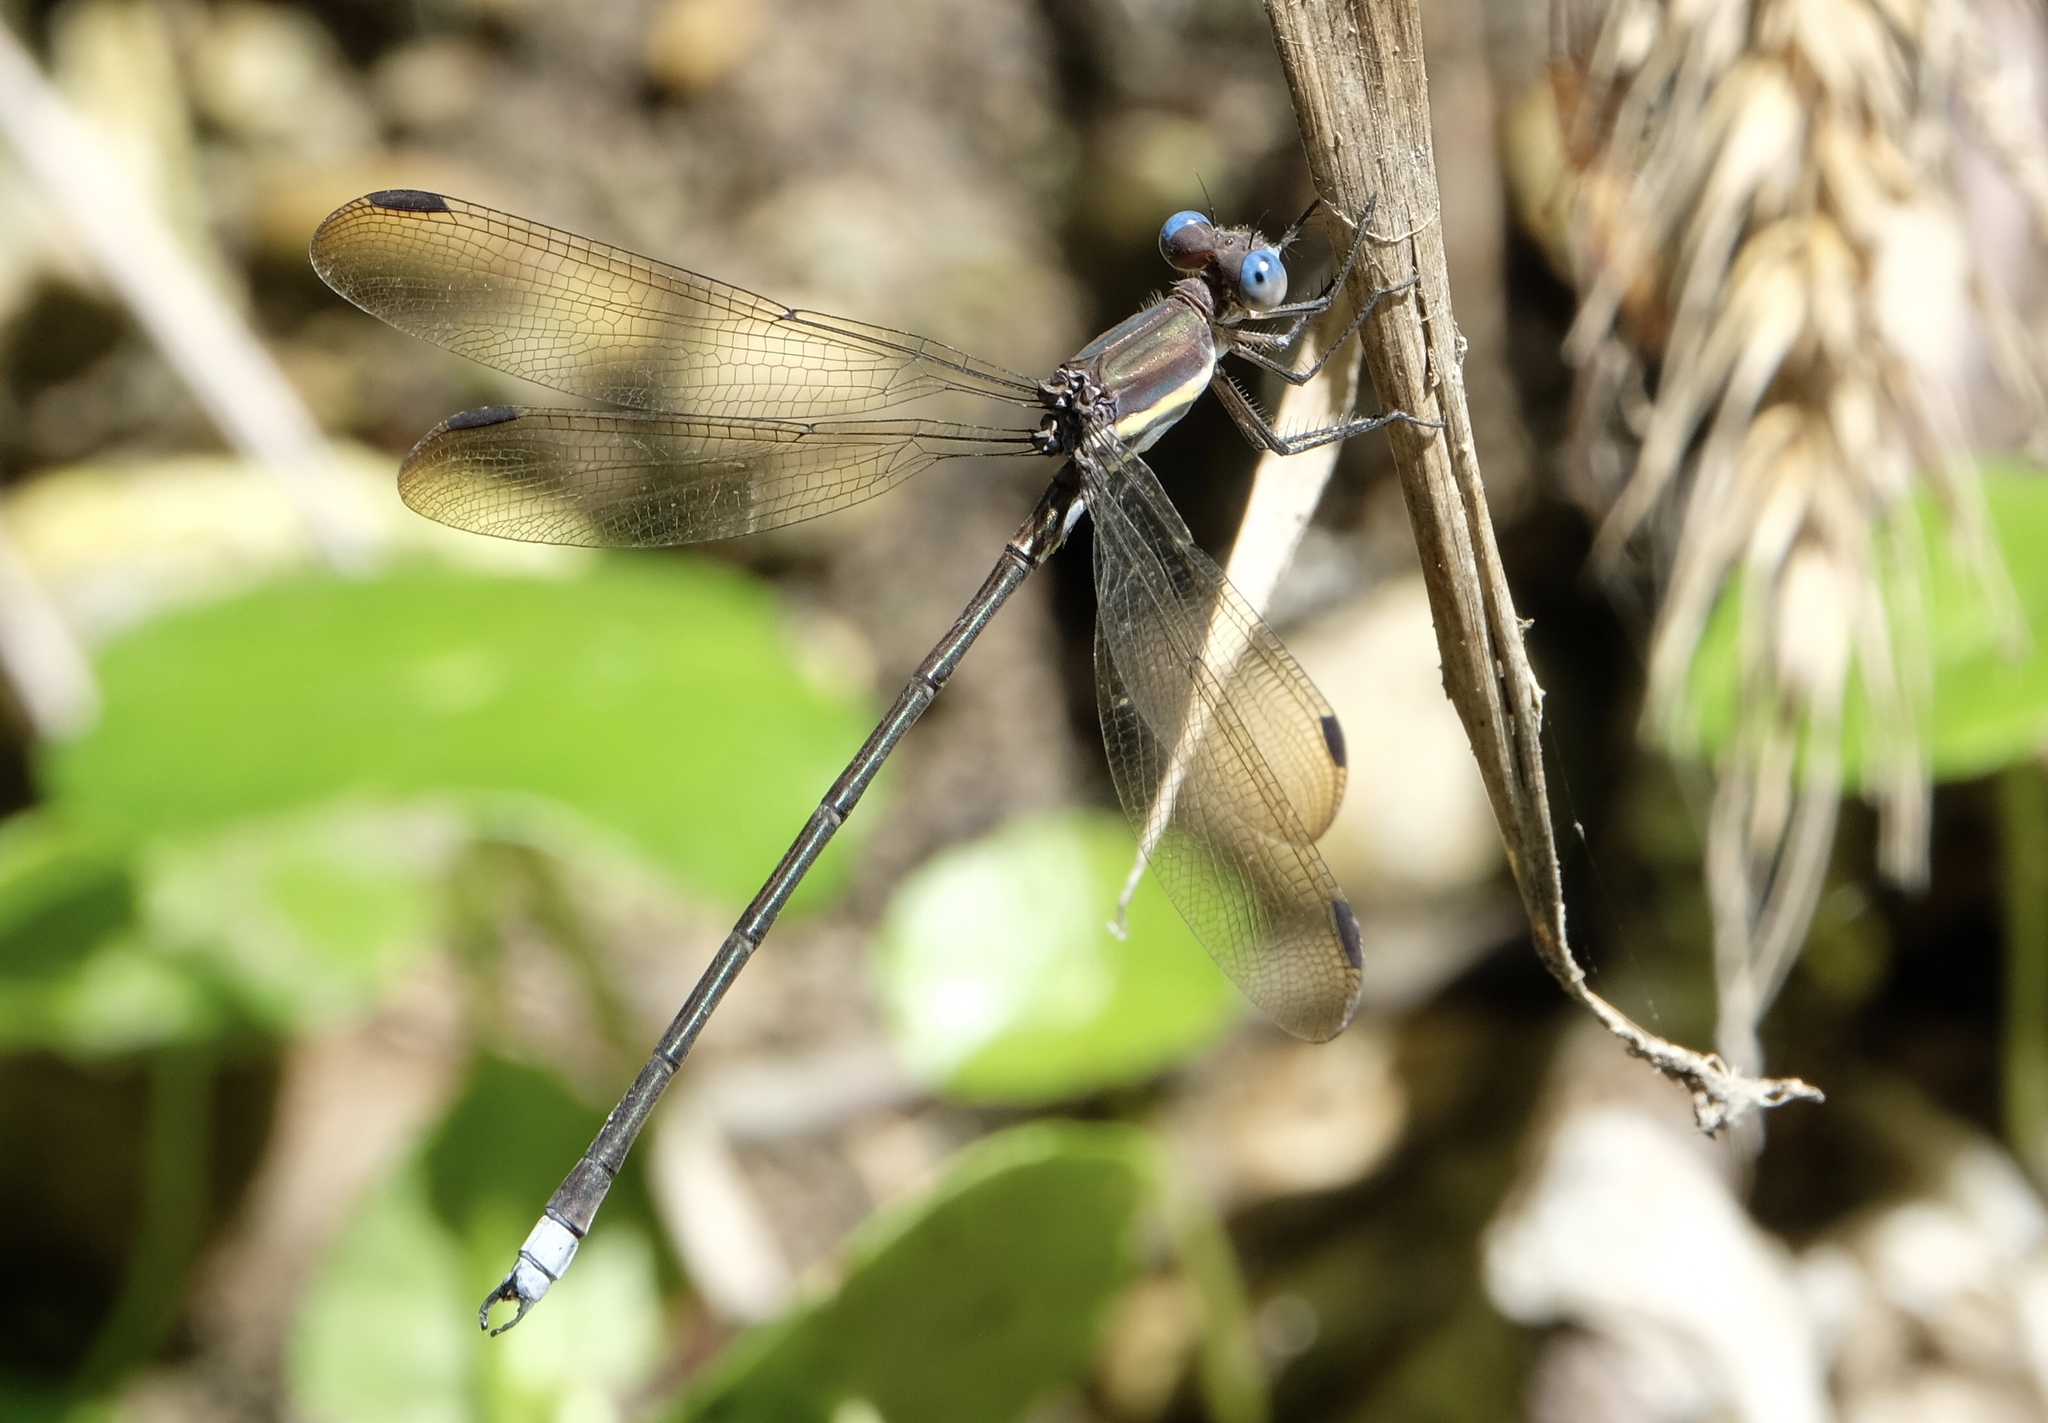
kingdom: Animalia
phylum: Arthropoda
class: Insecta
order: Odonata
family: Lestidae
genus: Archilestes
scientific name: Archilestes grandis
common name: Great spreadwing
